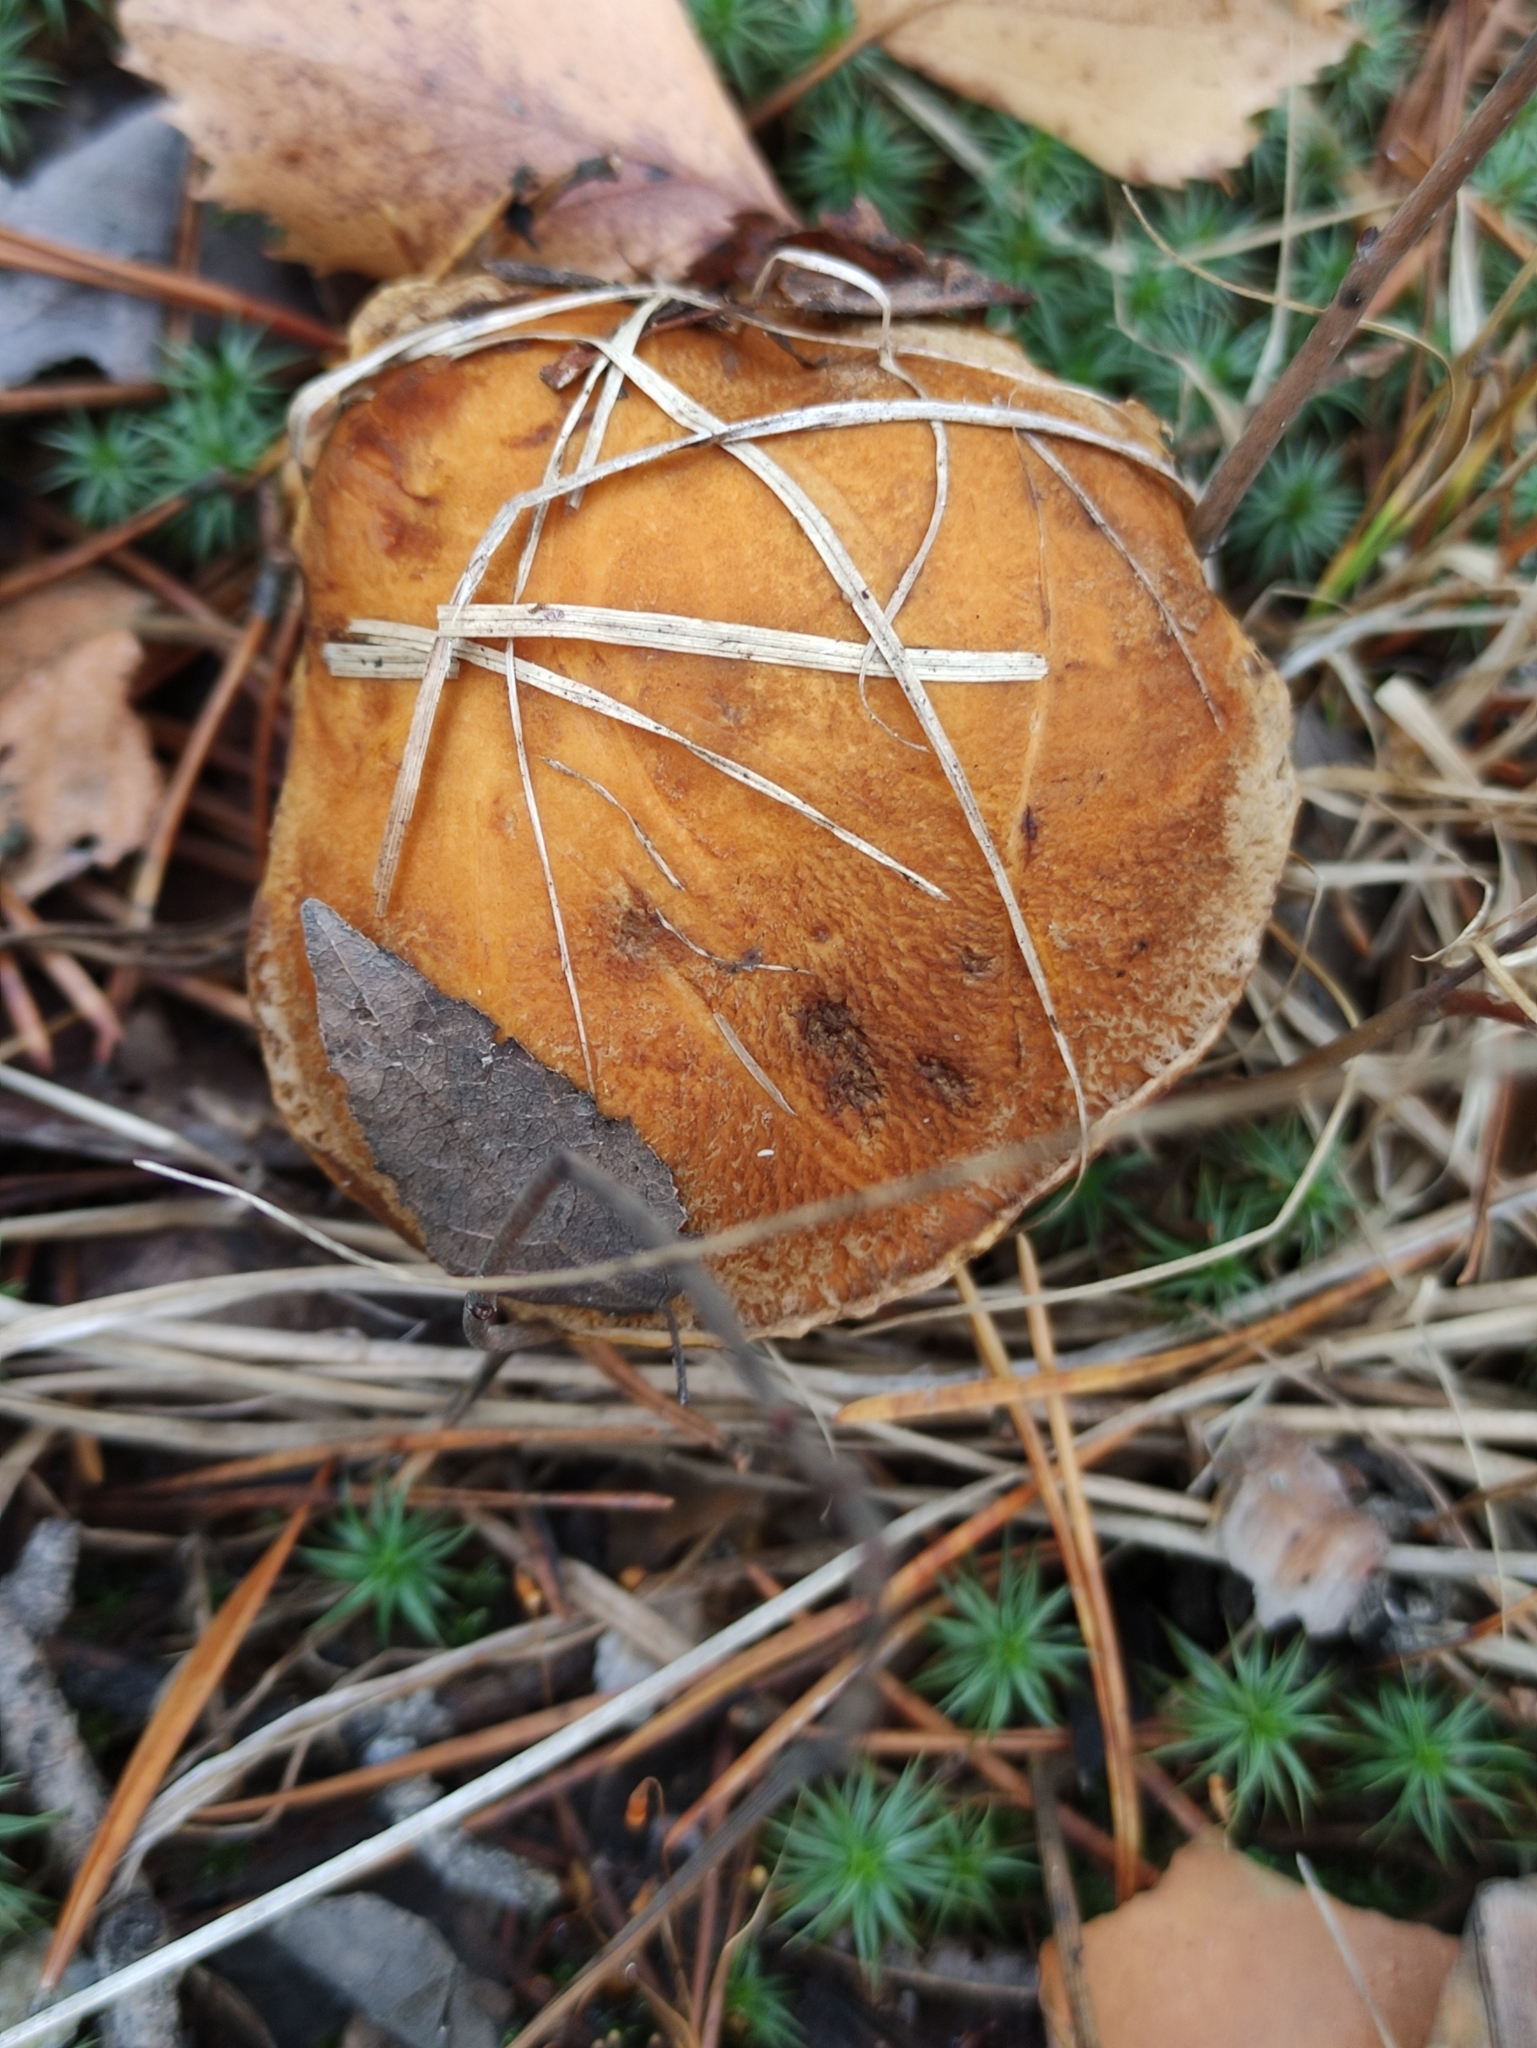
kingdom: Fungi
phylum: Basidiomycota
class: Agaricomycetes
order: Boletales
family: Suillaceae
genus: Suillus
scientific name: Suillus variegatus
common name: Velvet bolete
